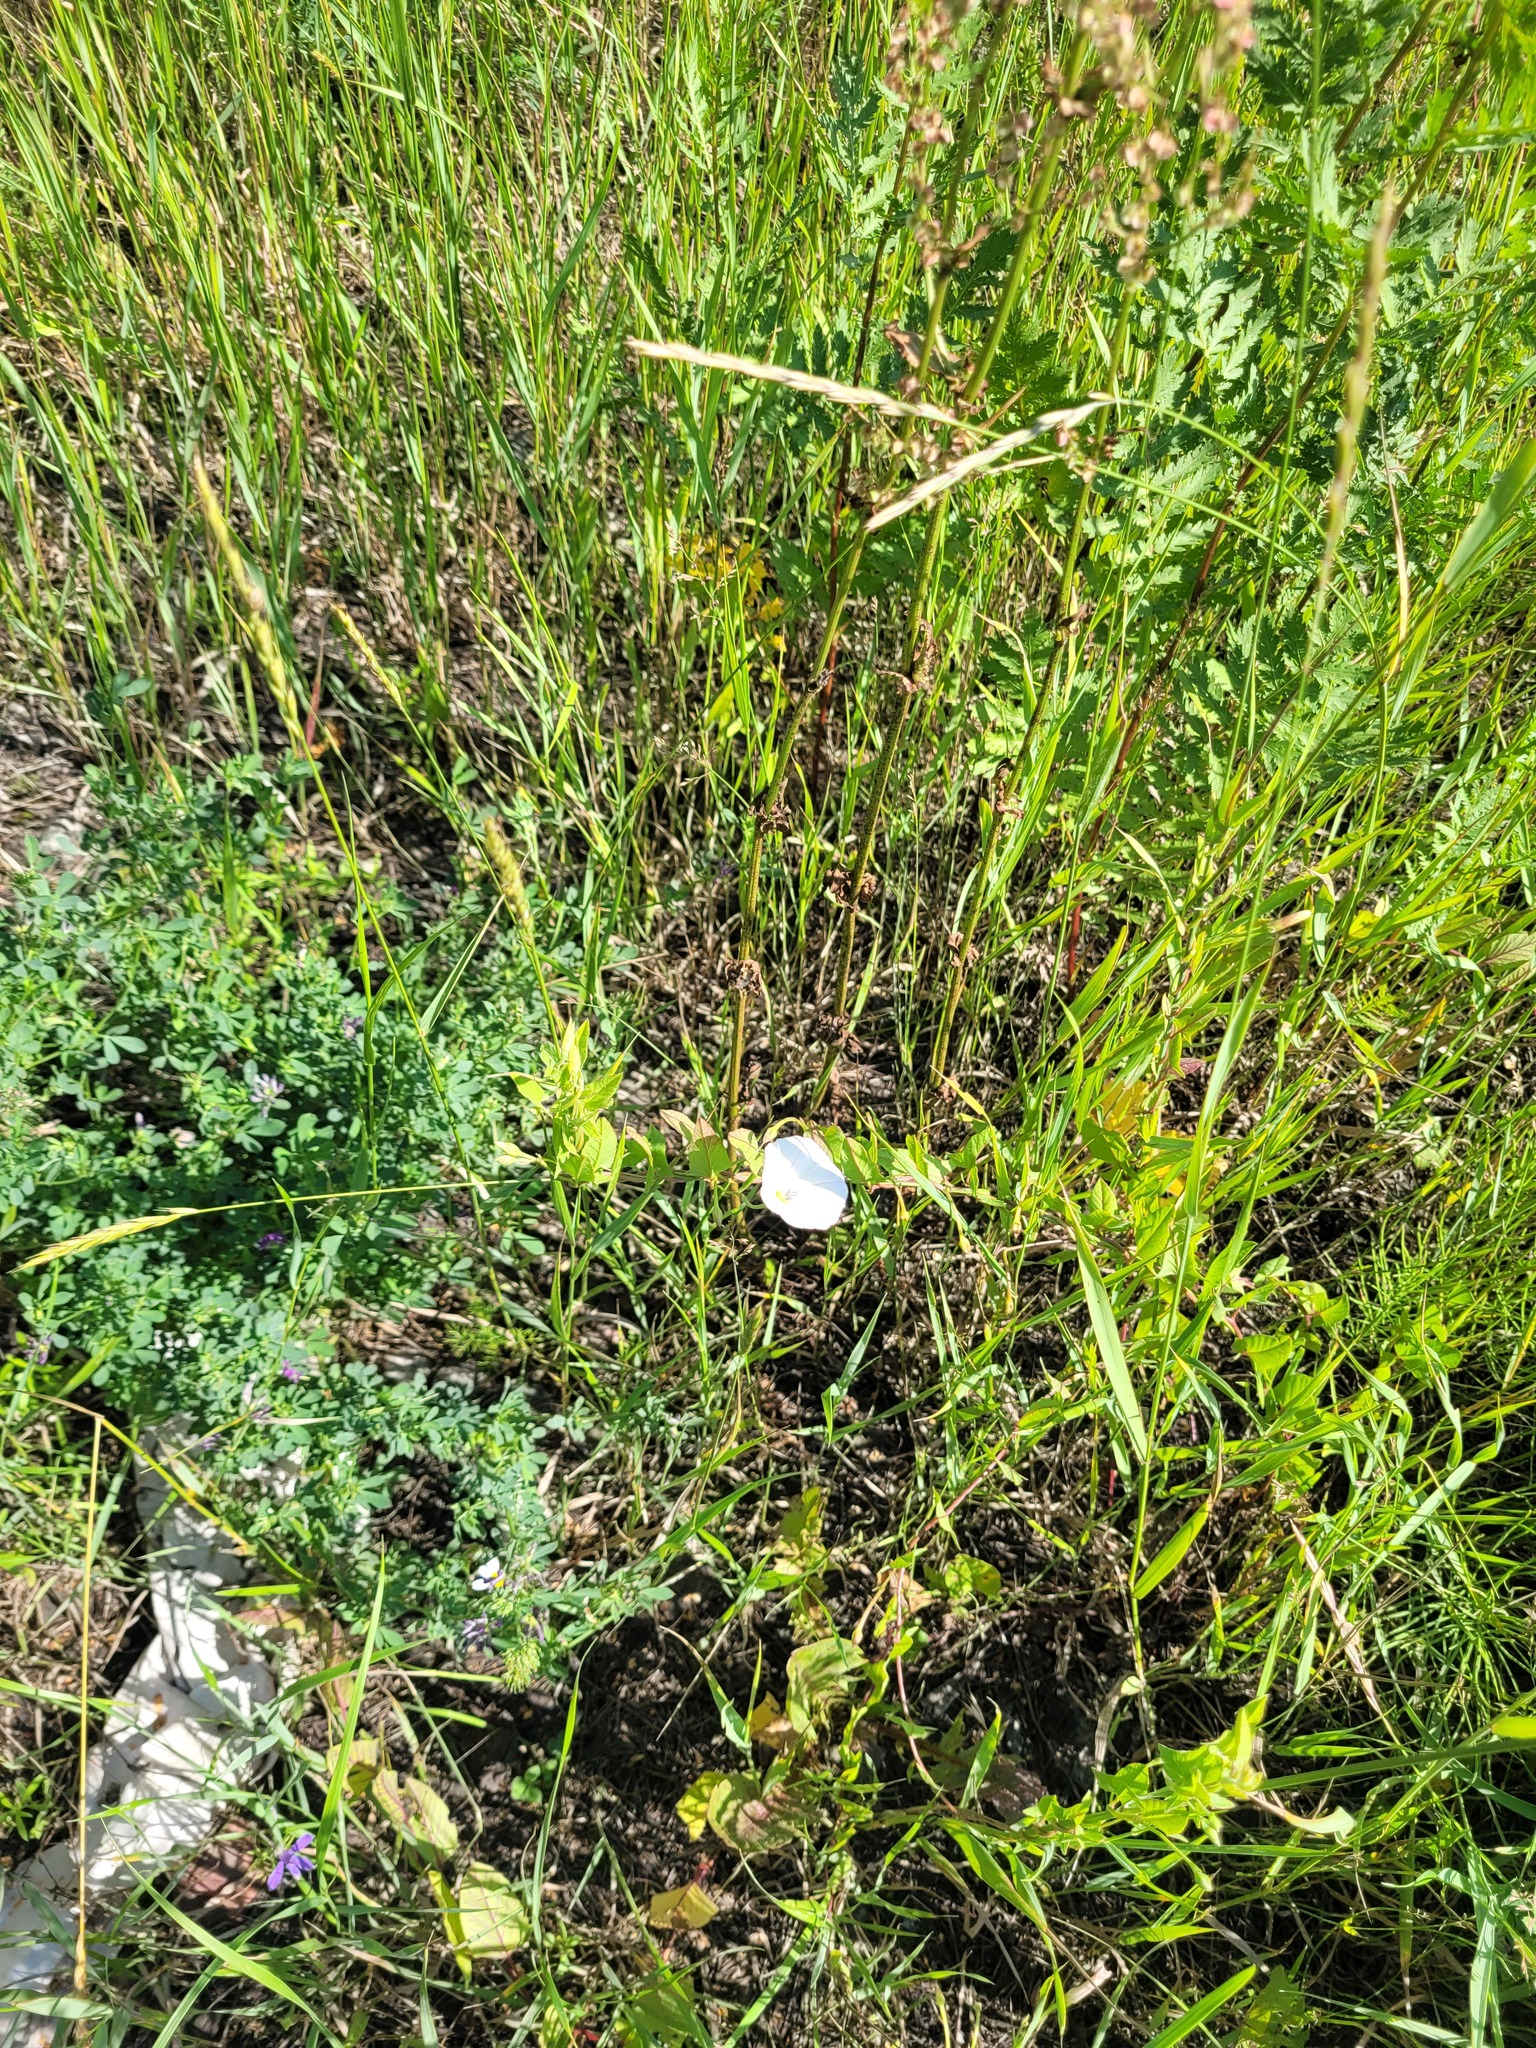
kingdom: Plantae
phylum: Tracheophyta
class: Magnoliopsida
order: Solanales
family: Convolvulaceae
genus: Convolvulus
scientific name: Convolvulus arvensis
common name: Field bindweed
